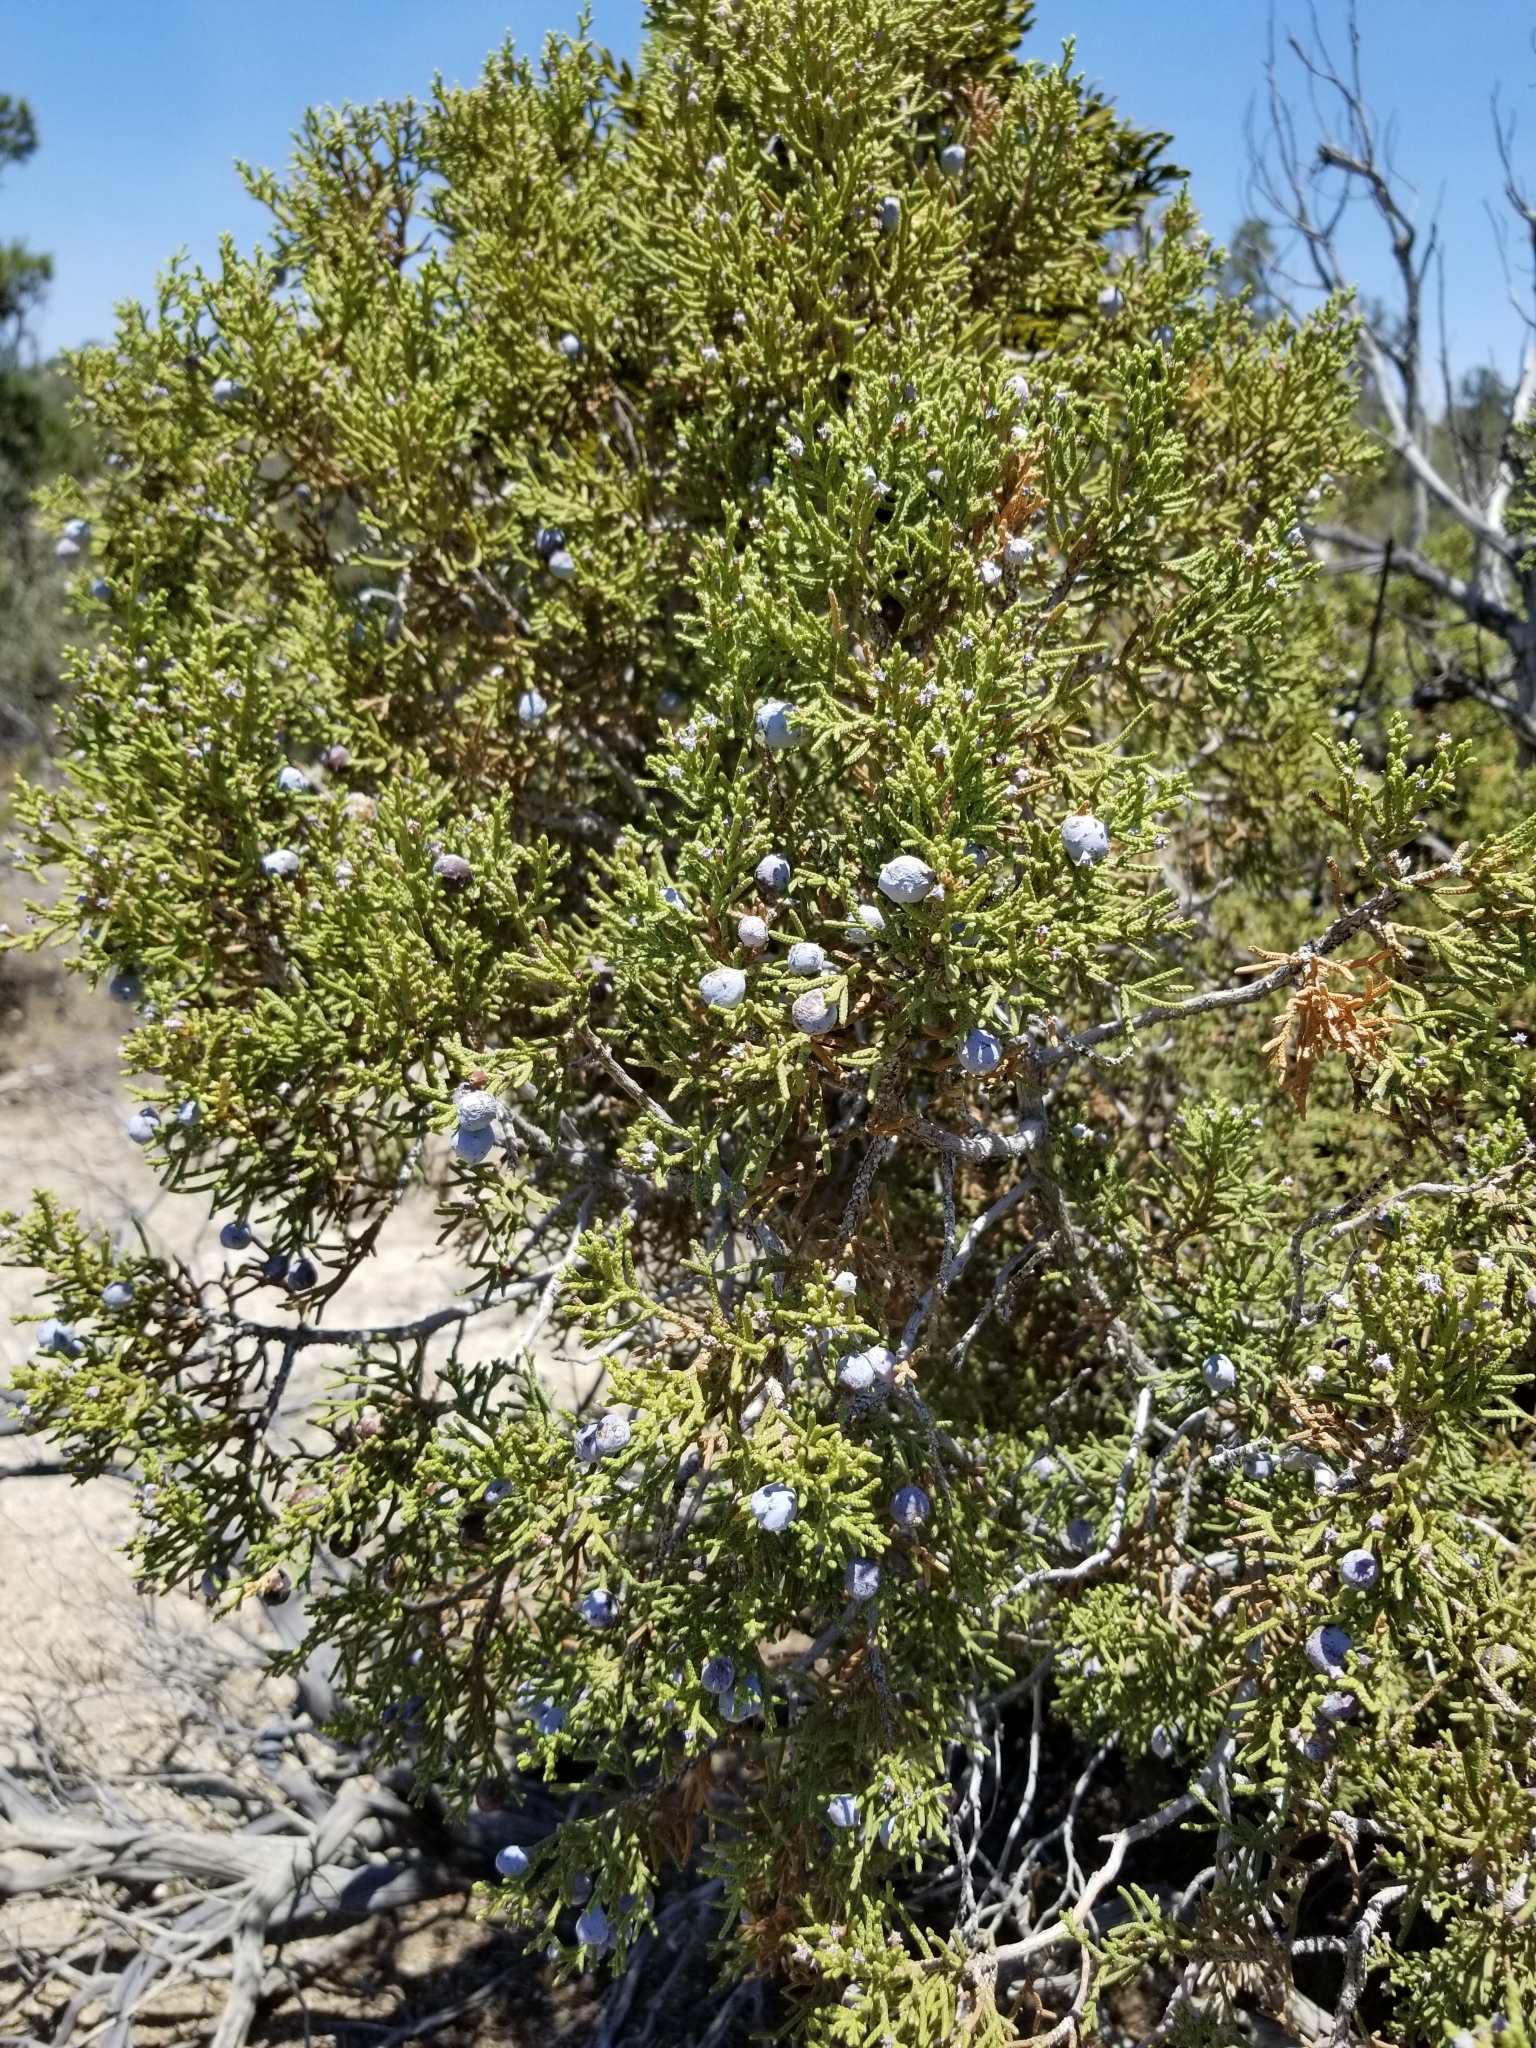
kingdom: Plantae
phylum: Tracheophyta
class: Pinopsida
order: Pinales
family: Cupressaceae
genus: Juniperus
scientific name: Juniperus californica
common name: California juniper
